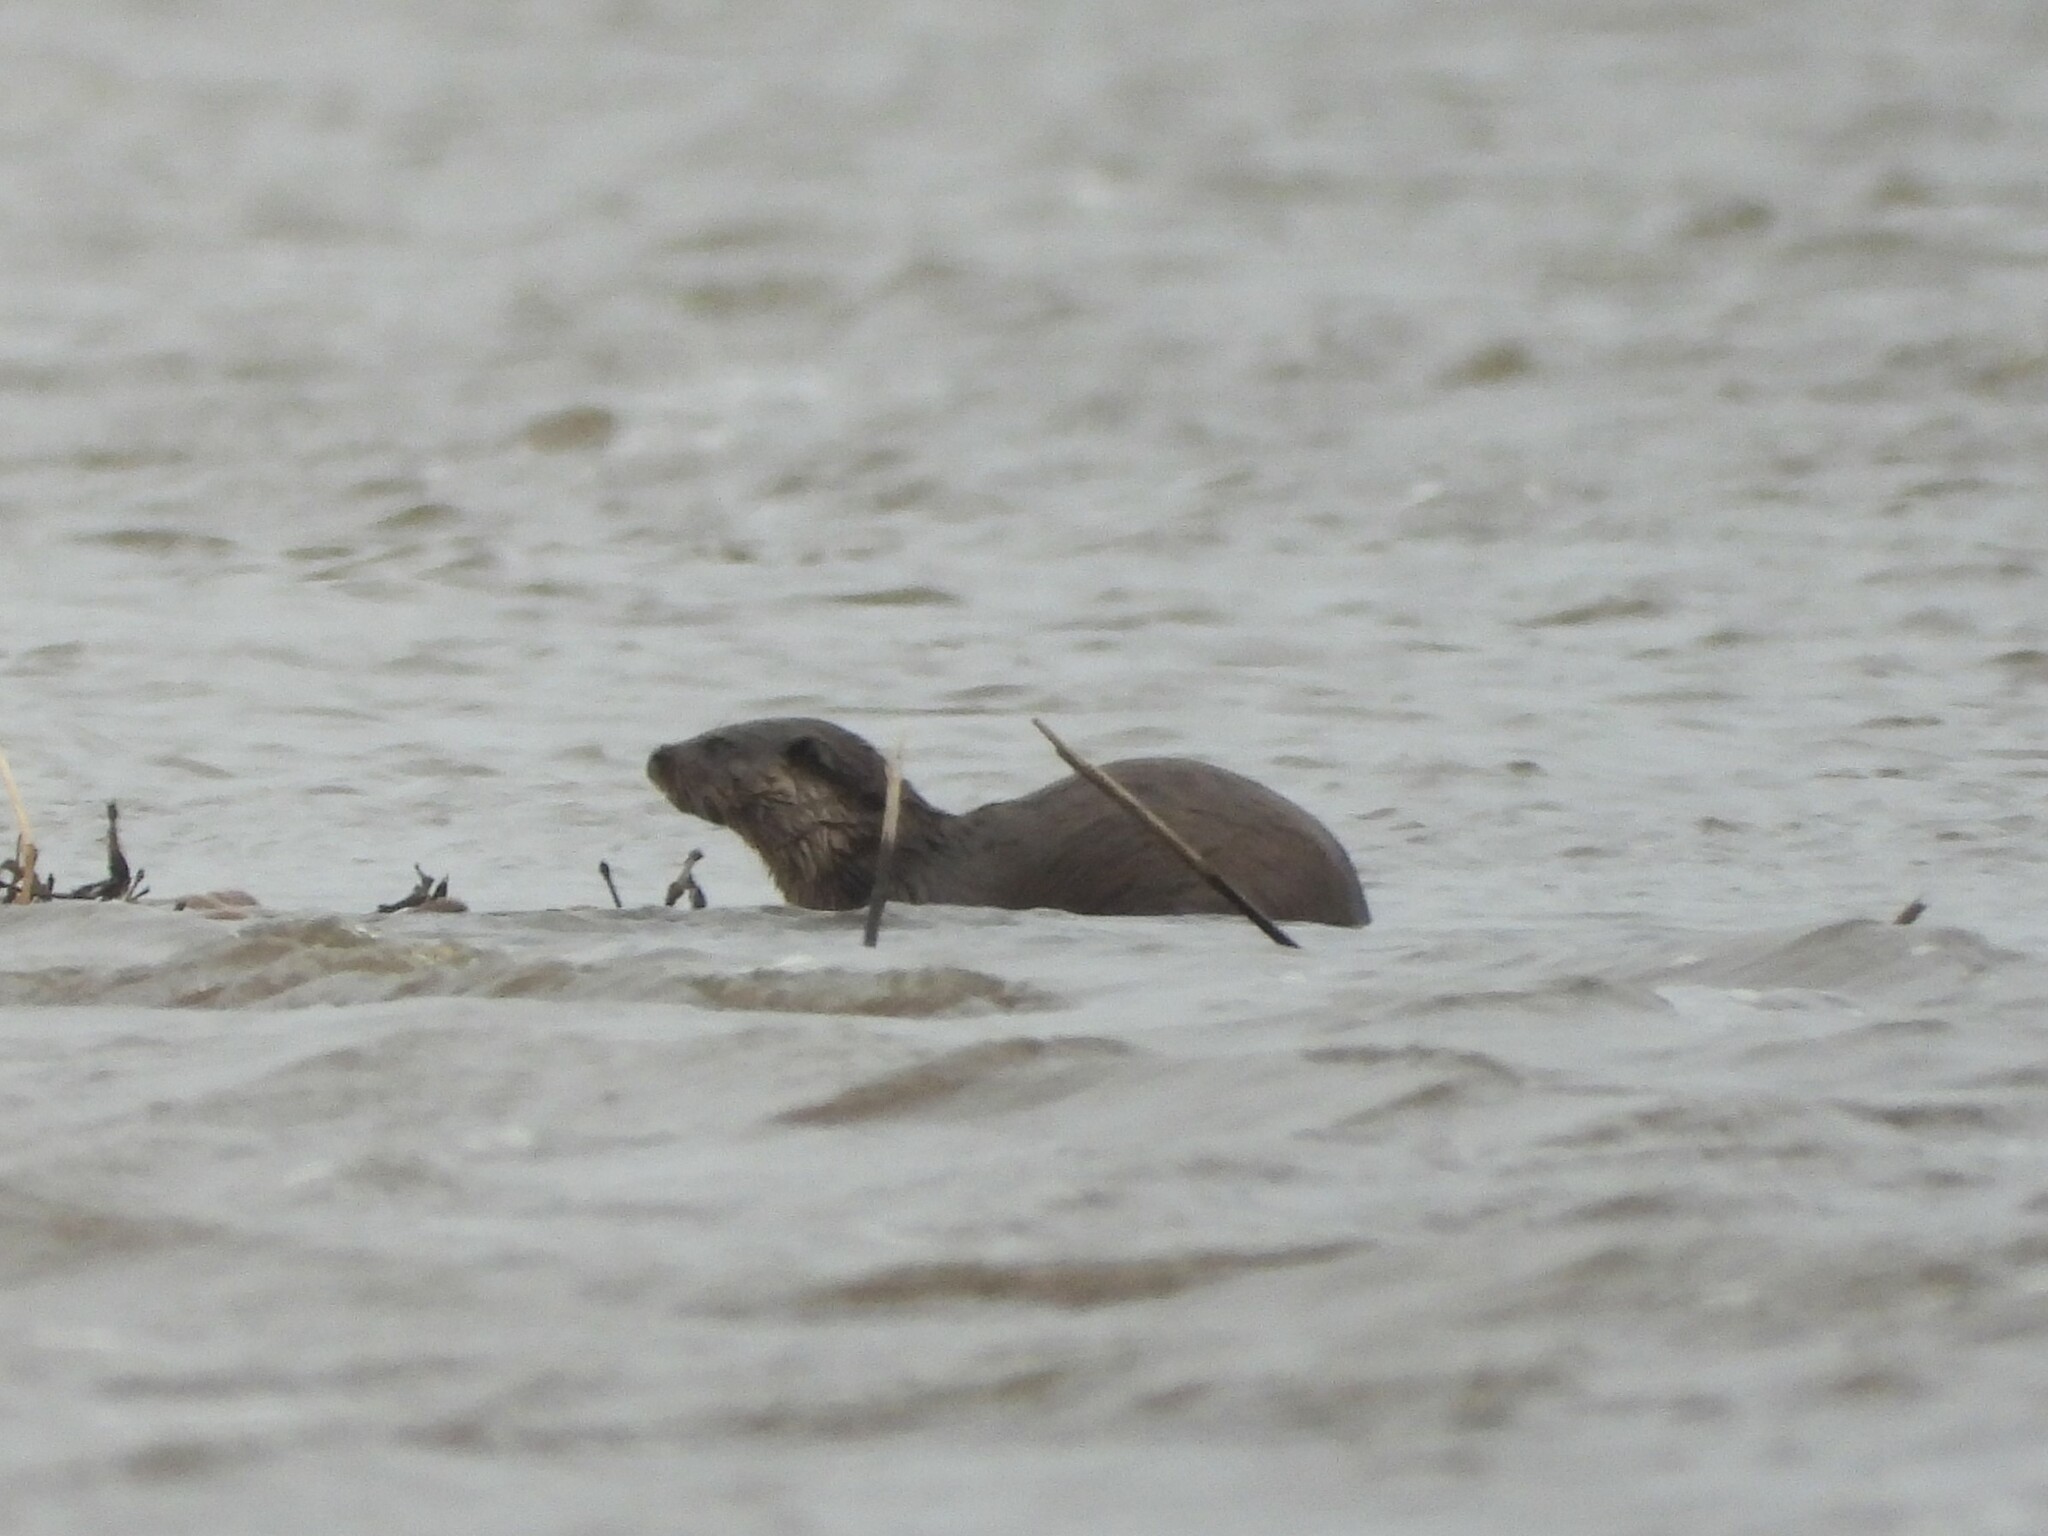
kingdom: Animalia
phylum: Chordata
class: Mammalia
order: Carnivora
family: Mustelidae
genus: Lutra
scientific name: Lutra lutra
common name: European otter
